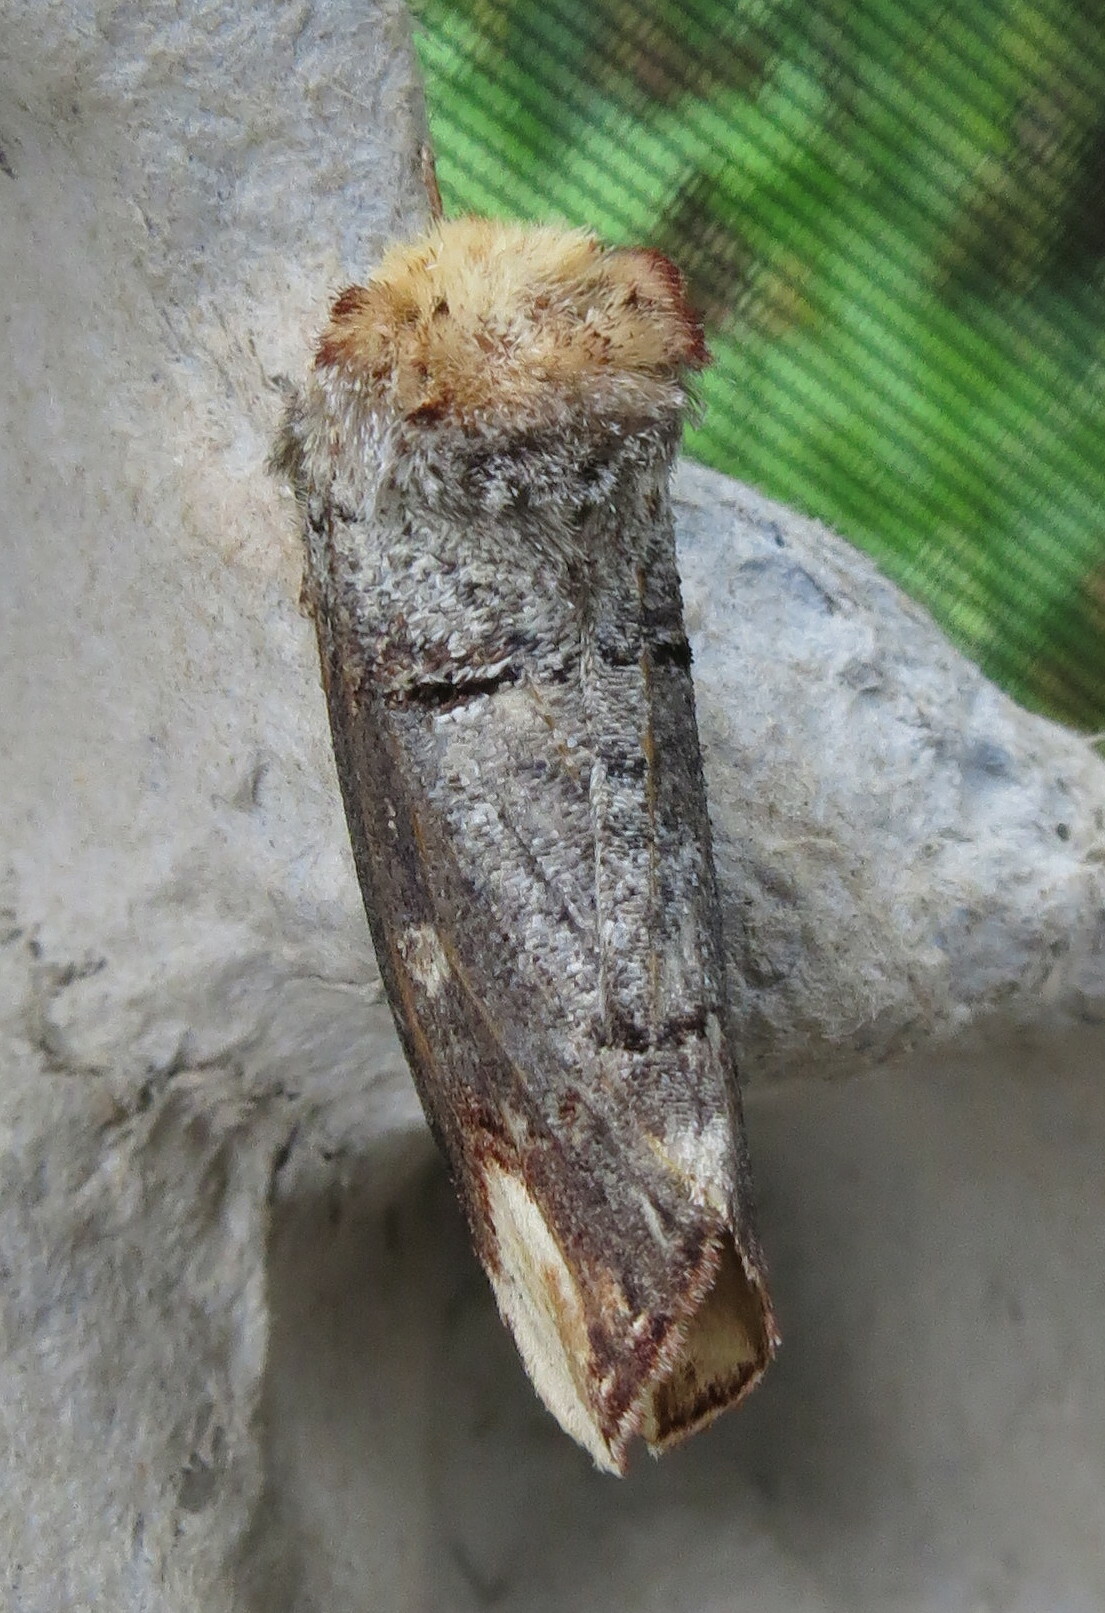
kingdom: Animalia
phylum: Arthropoda
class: Insecta
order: Lepidoptera
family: Notodontidae
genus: Phalera
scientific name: Phalera bucephala
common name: Buff-tip
